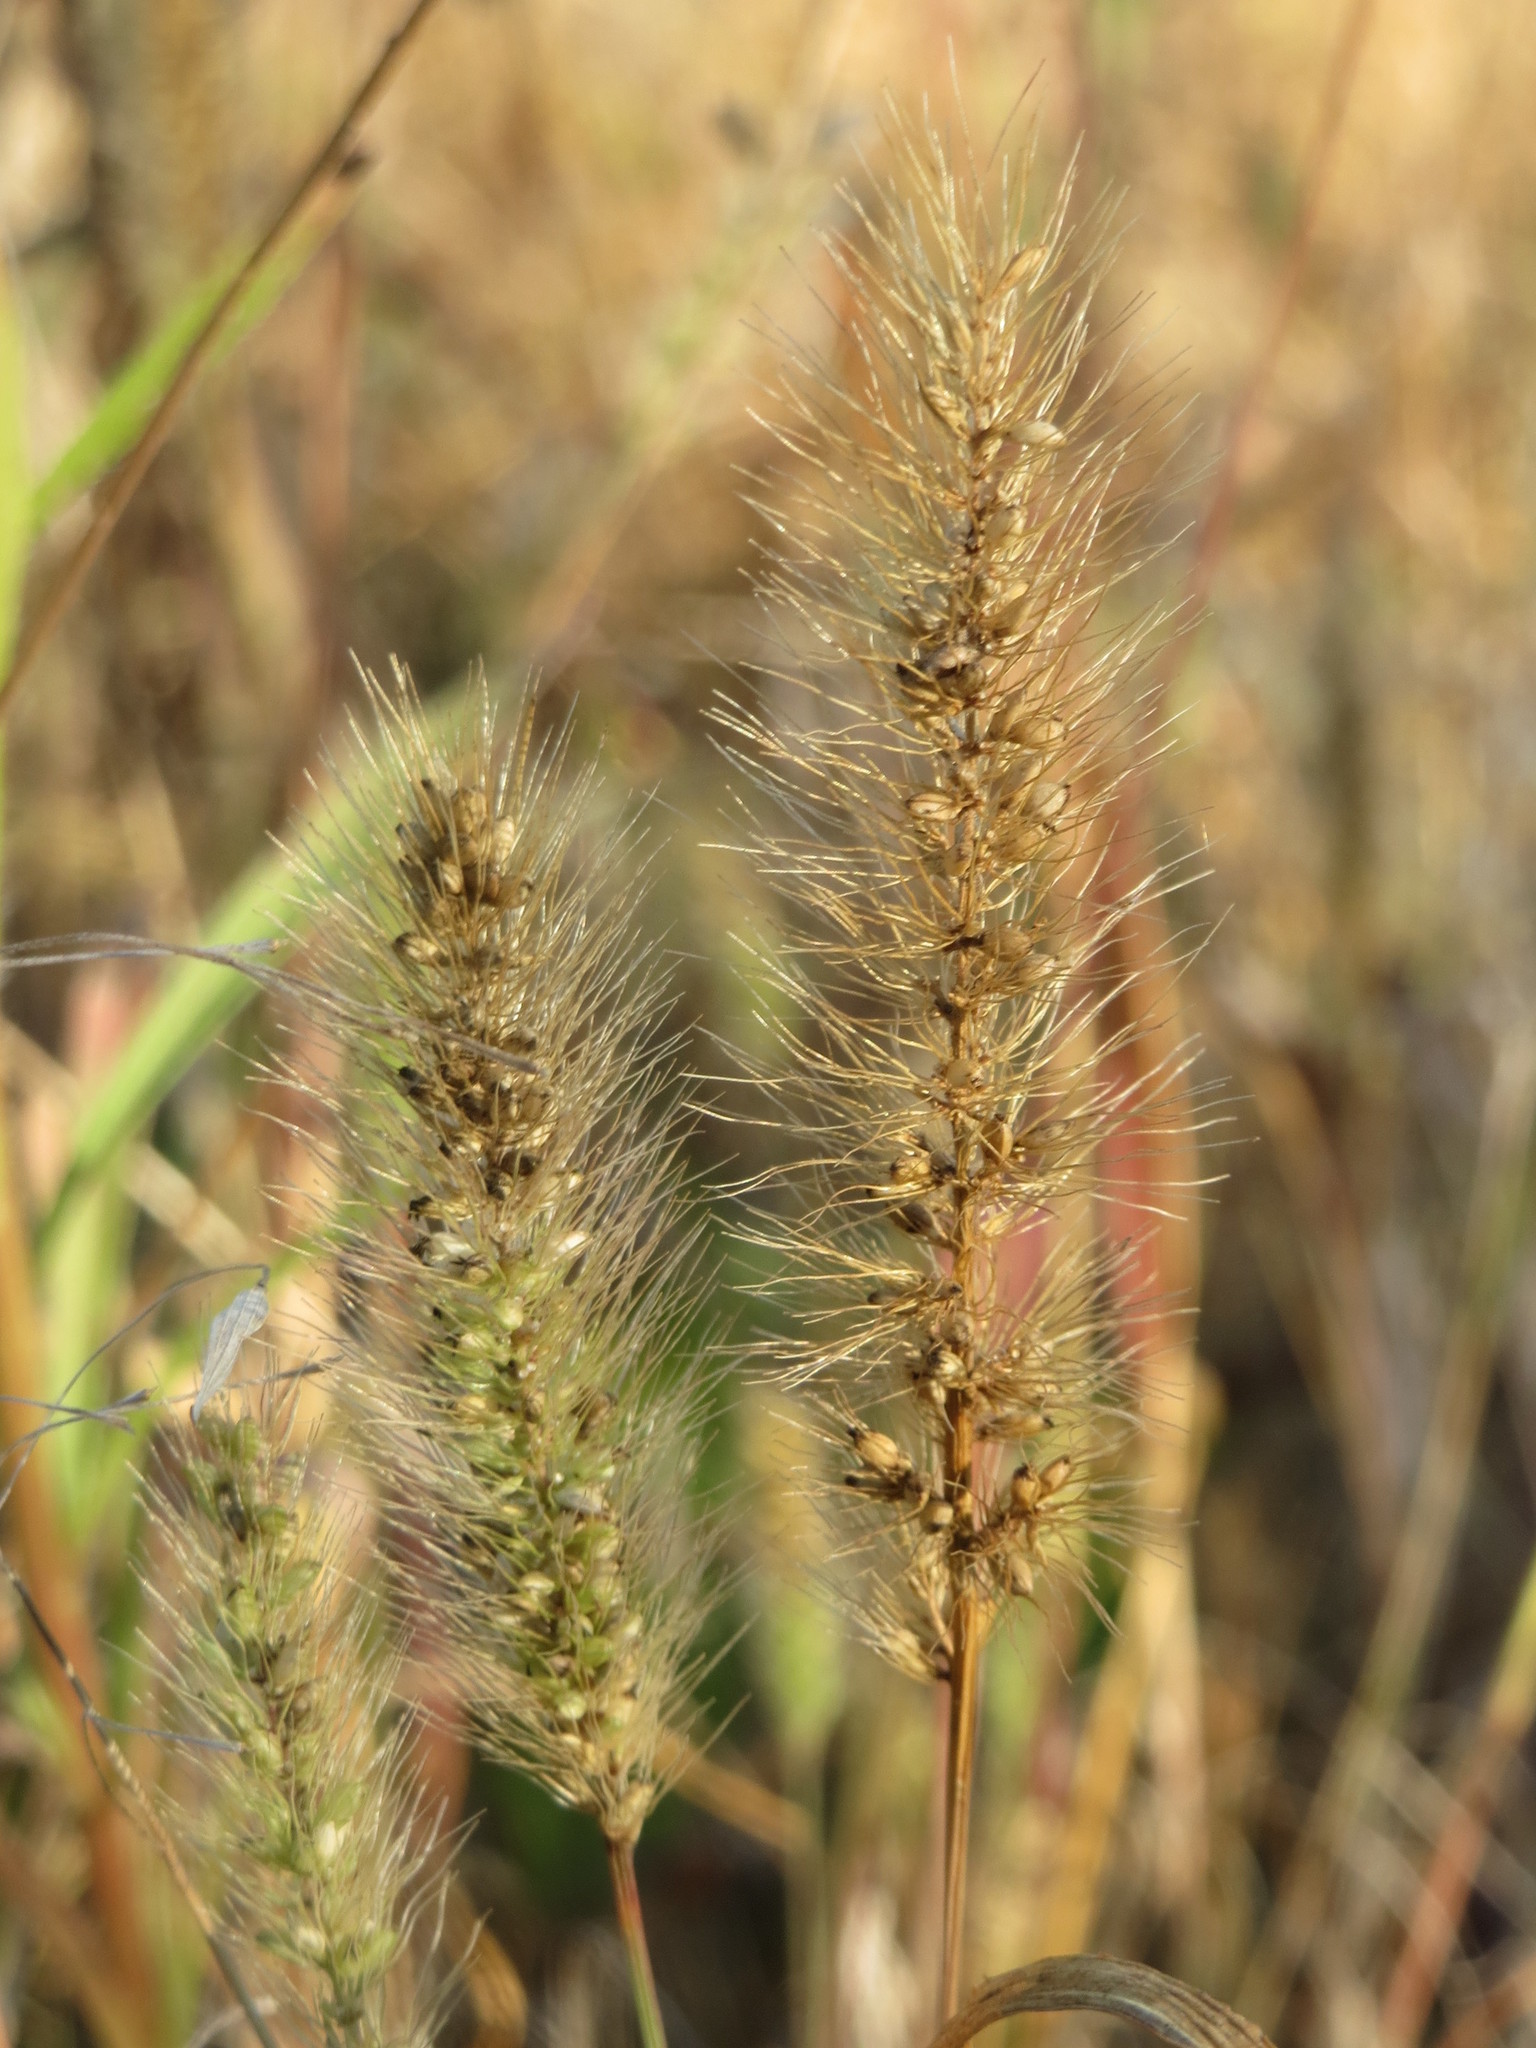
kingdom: Plantae
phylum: Tracheophyta
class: Liliopsida
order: Poales
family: Poaceae
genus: Setaria
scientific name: Setaria pumila
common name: Yellow bristle-grass
